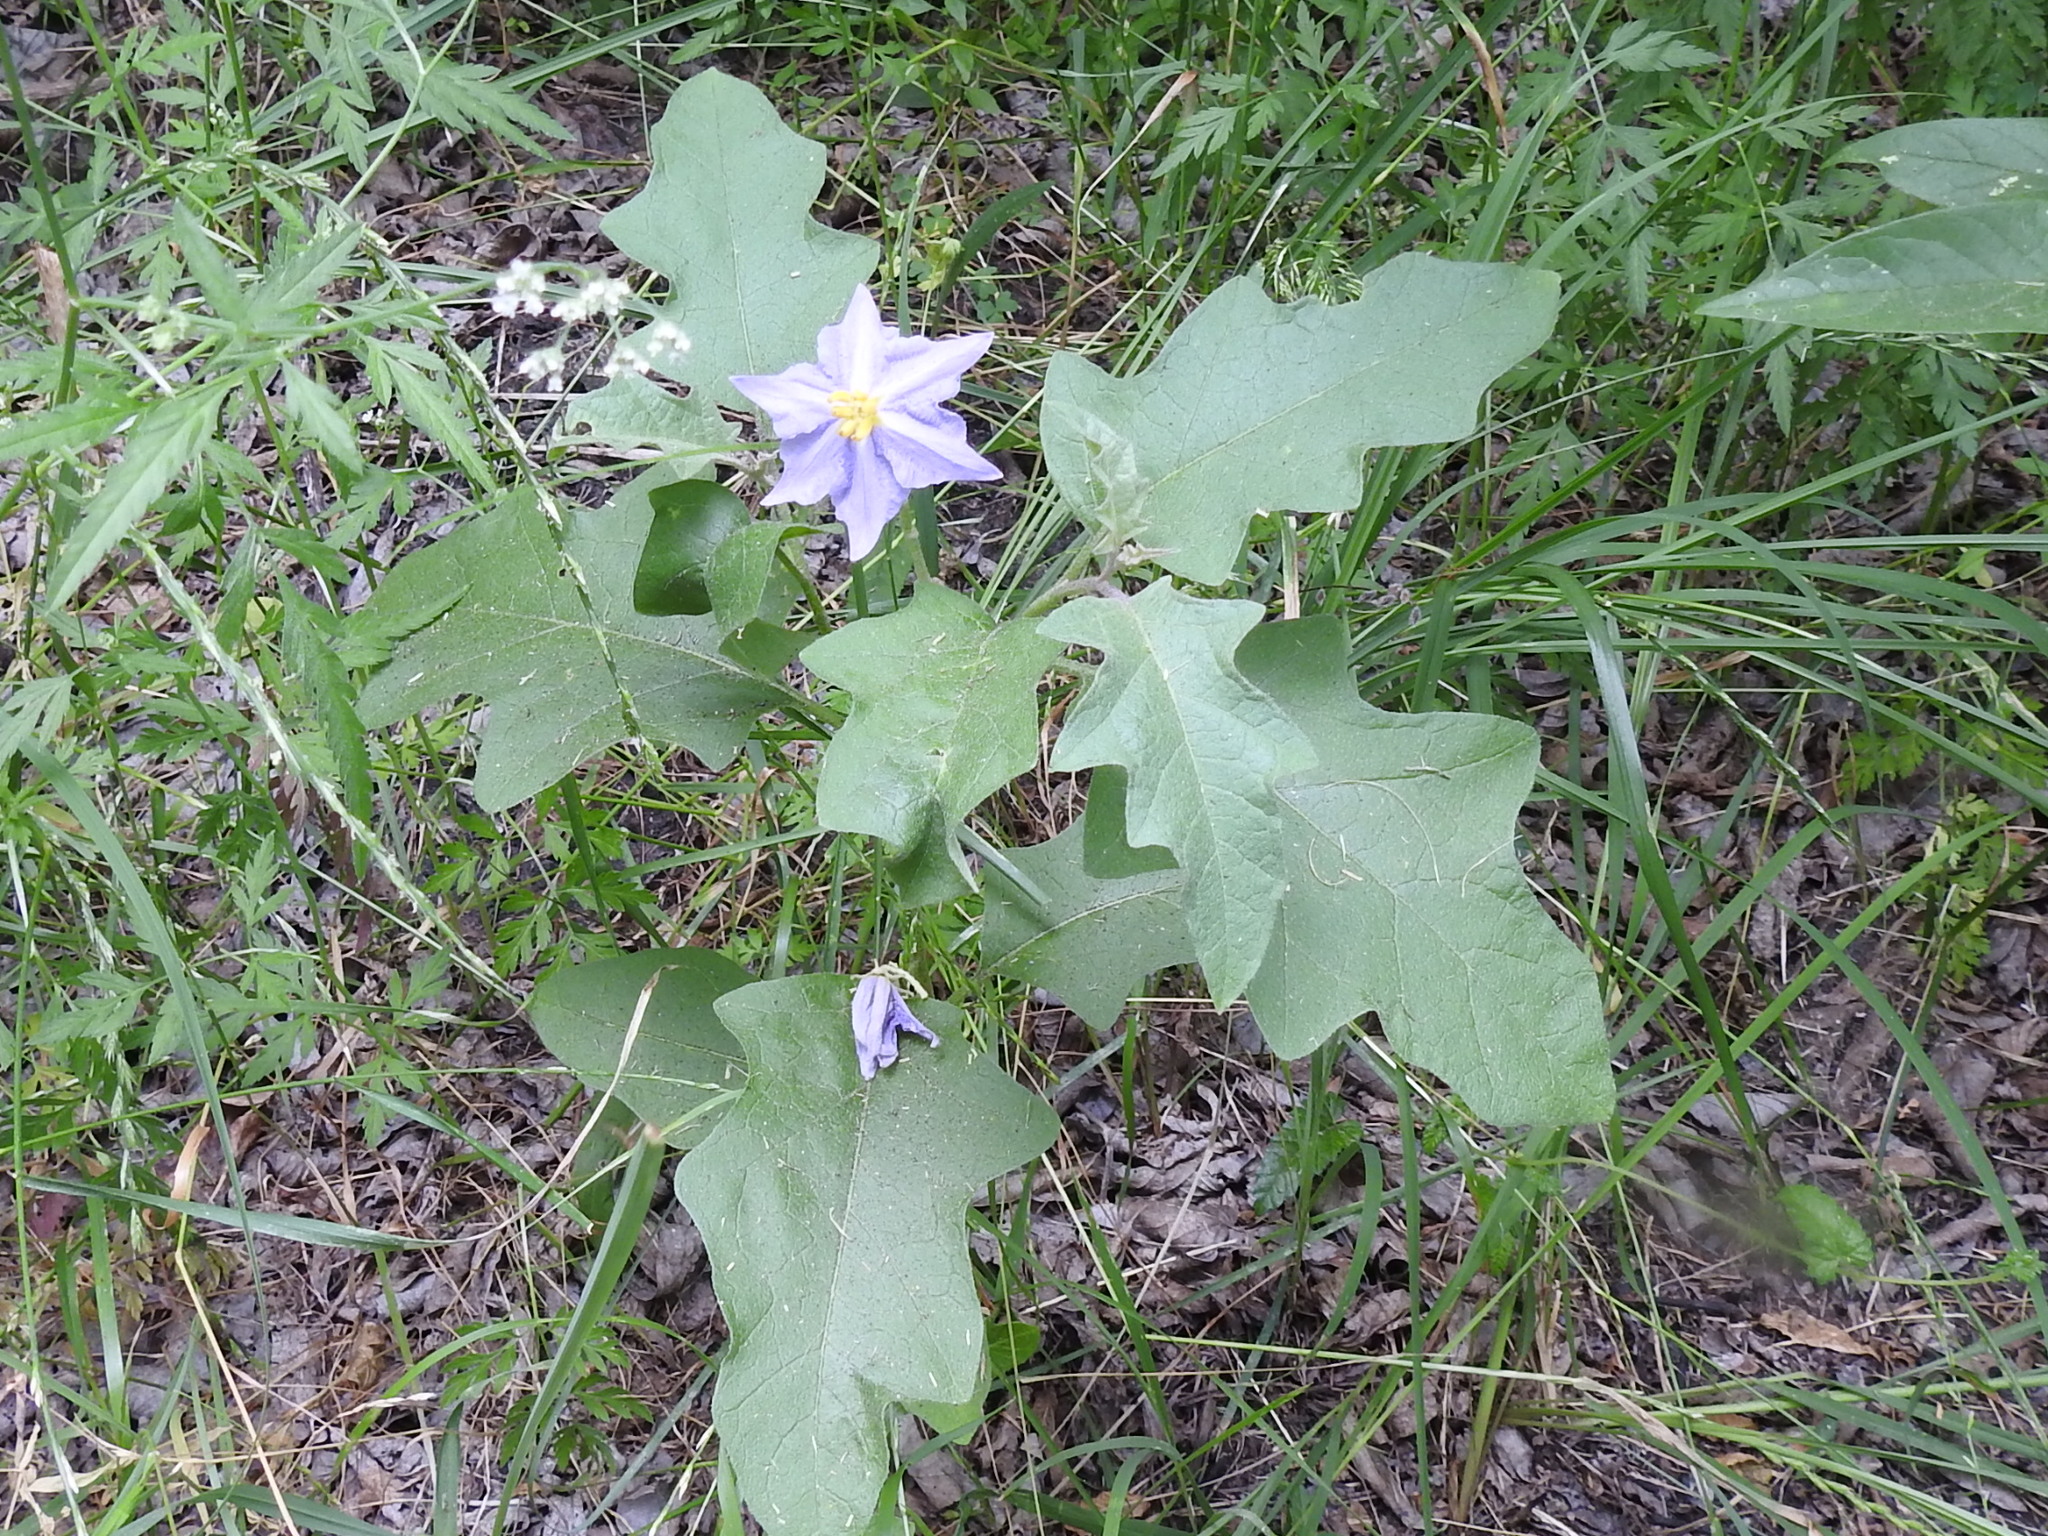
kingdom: Plantae
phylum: Tracheophyta
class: Magnoliopsida
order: Solanales
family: Solanaceae
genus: Solanum
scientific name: Solanum dimidiatum
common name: Carolina horse-nettle
